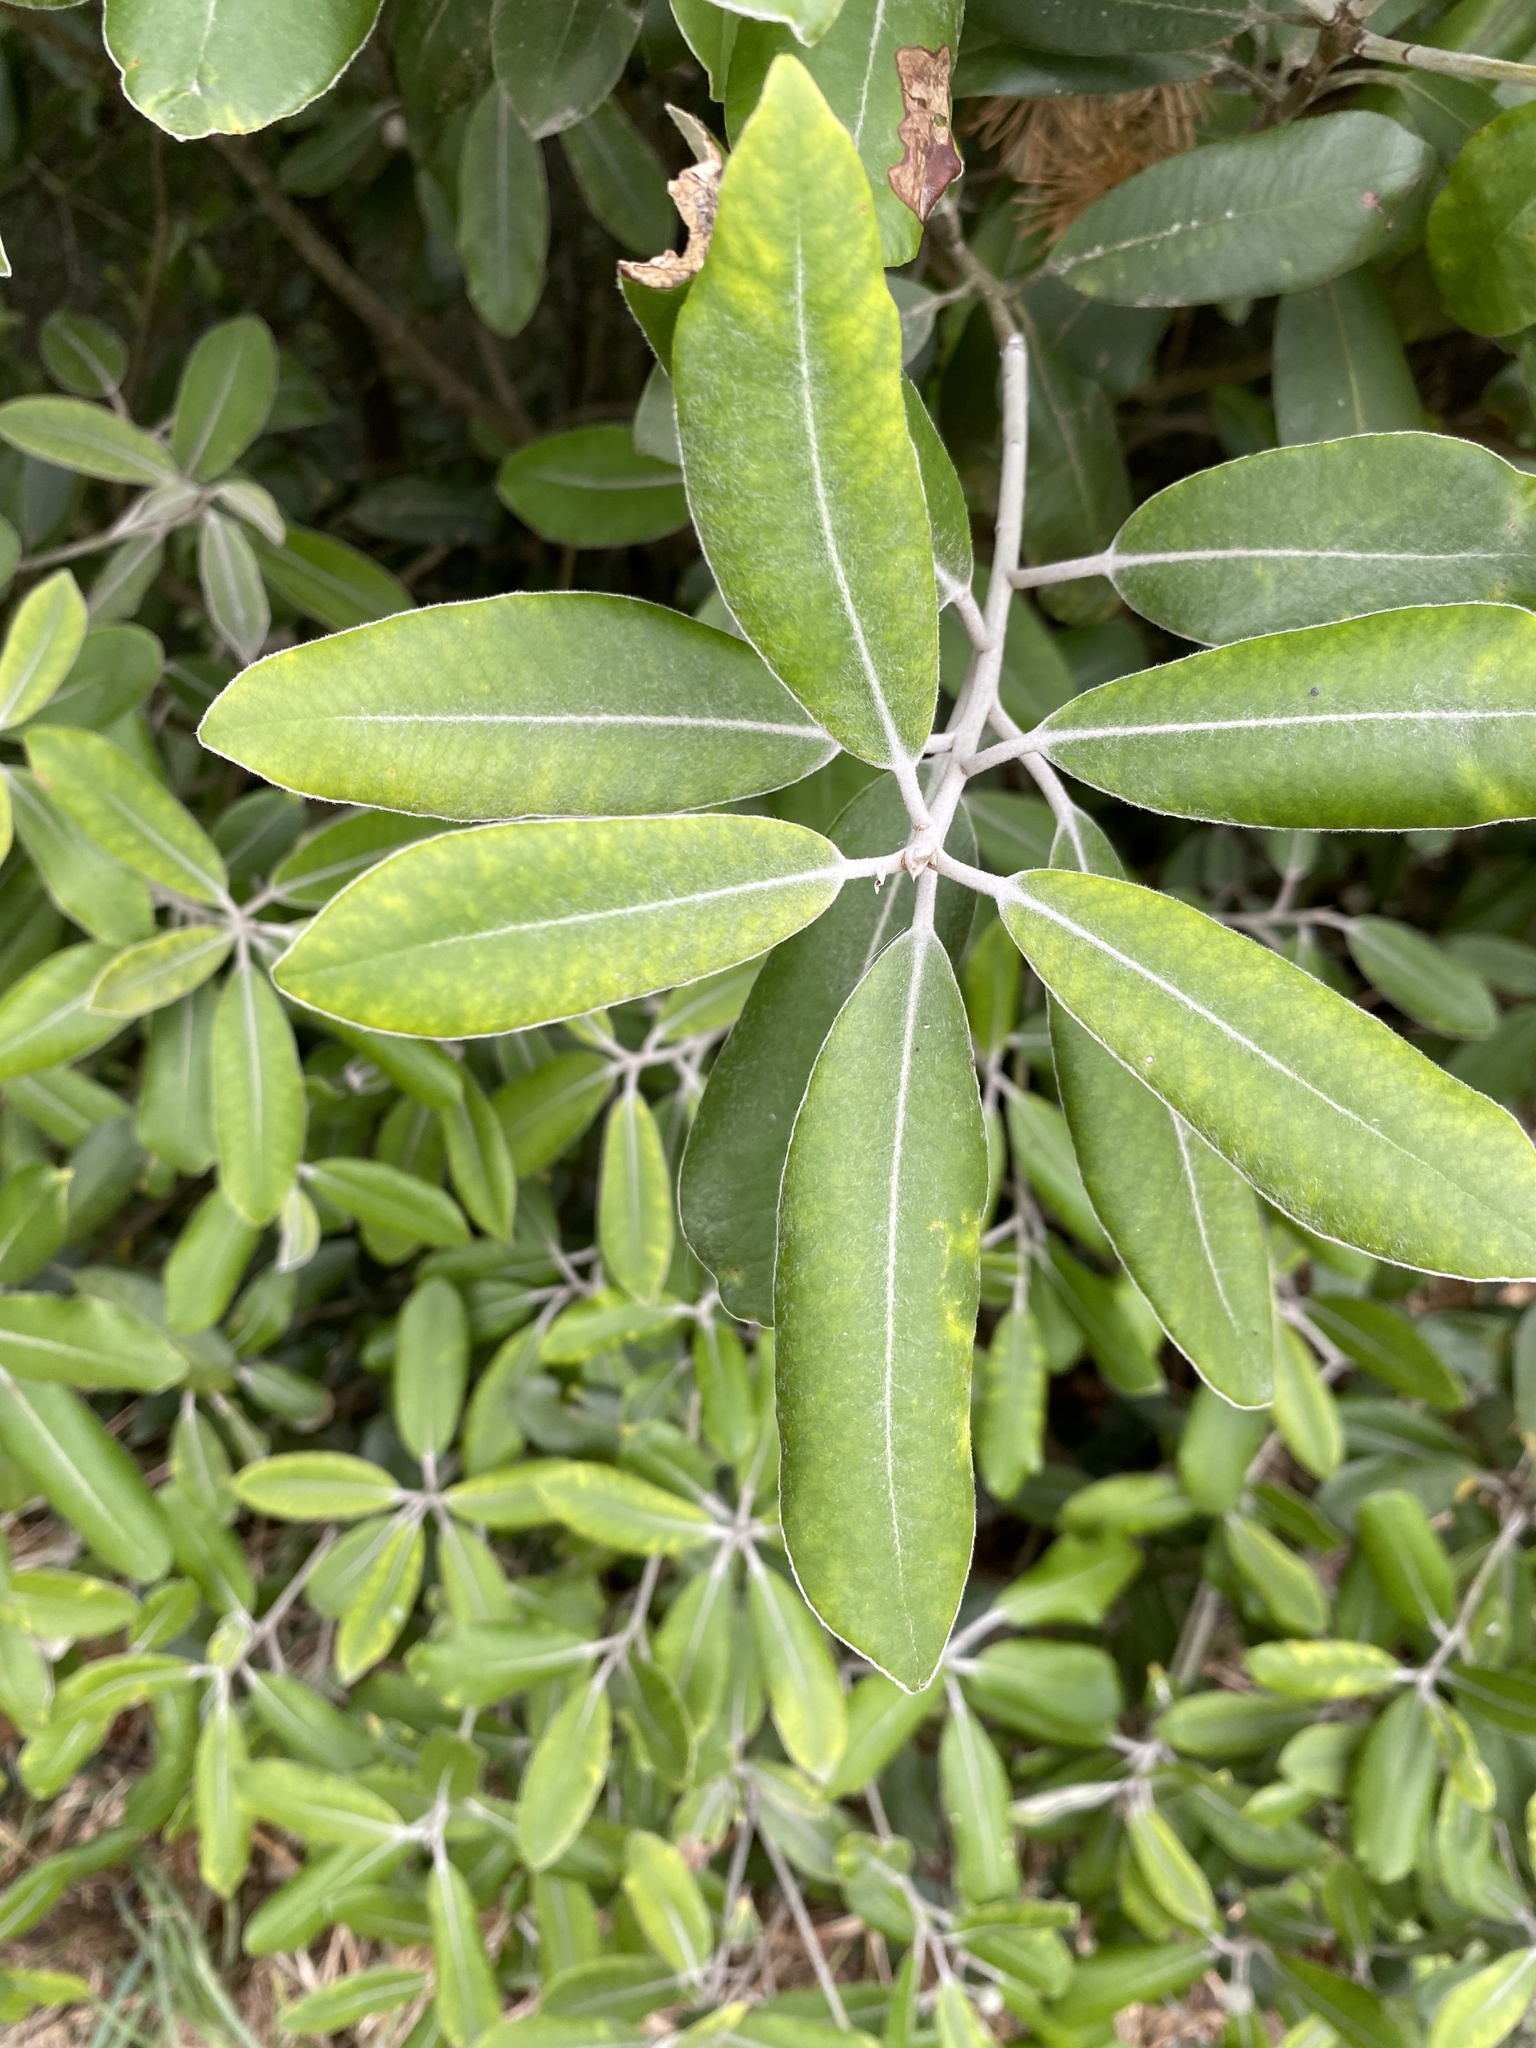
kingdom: Plantae
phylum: Tracheophyta
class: Magnoliopsida
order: Apiales
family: Pittosporaceae
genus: Pittosporum
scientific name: Pittosporum ralphii
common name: Ralph's desertwillow
